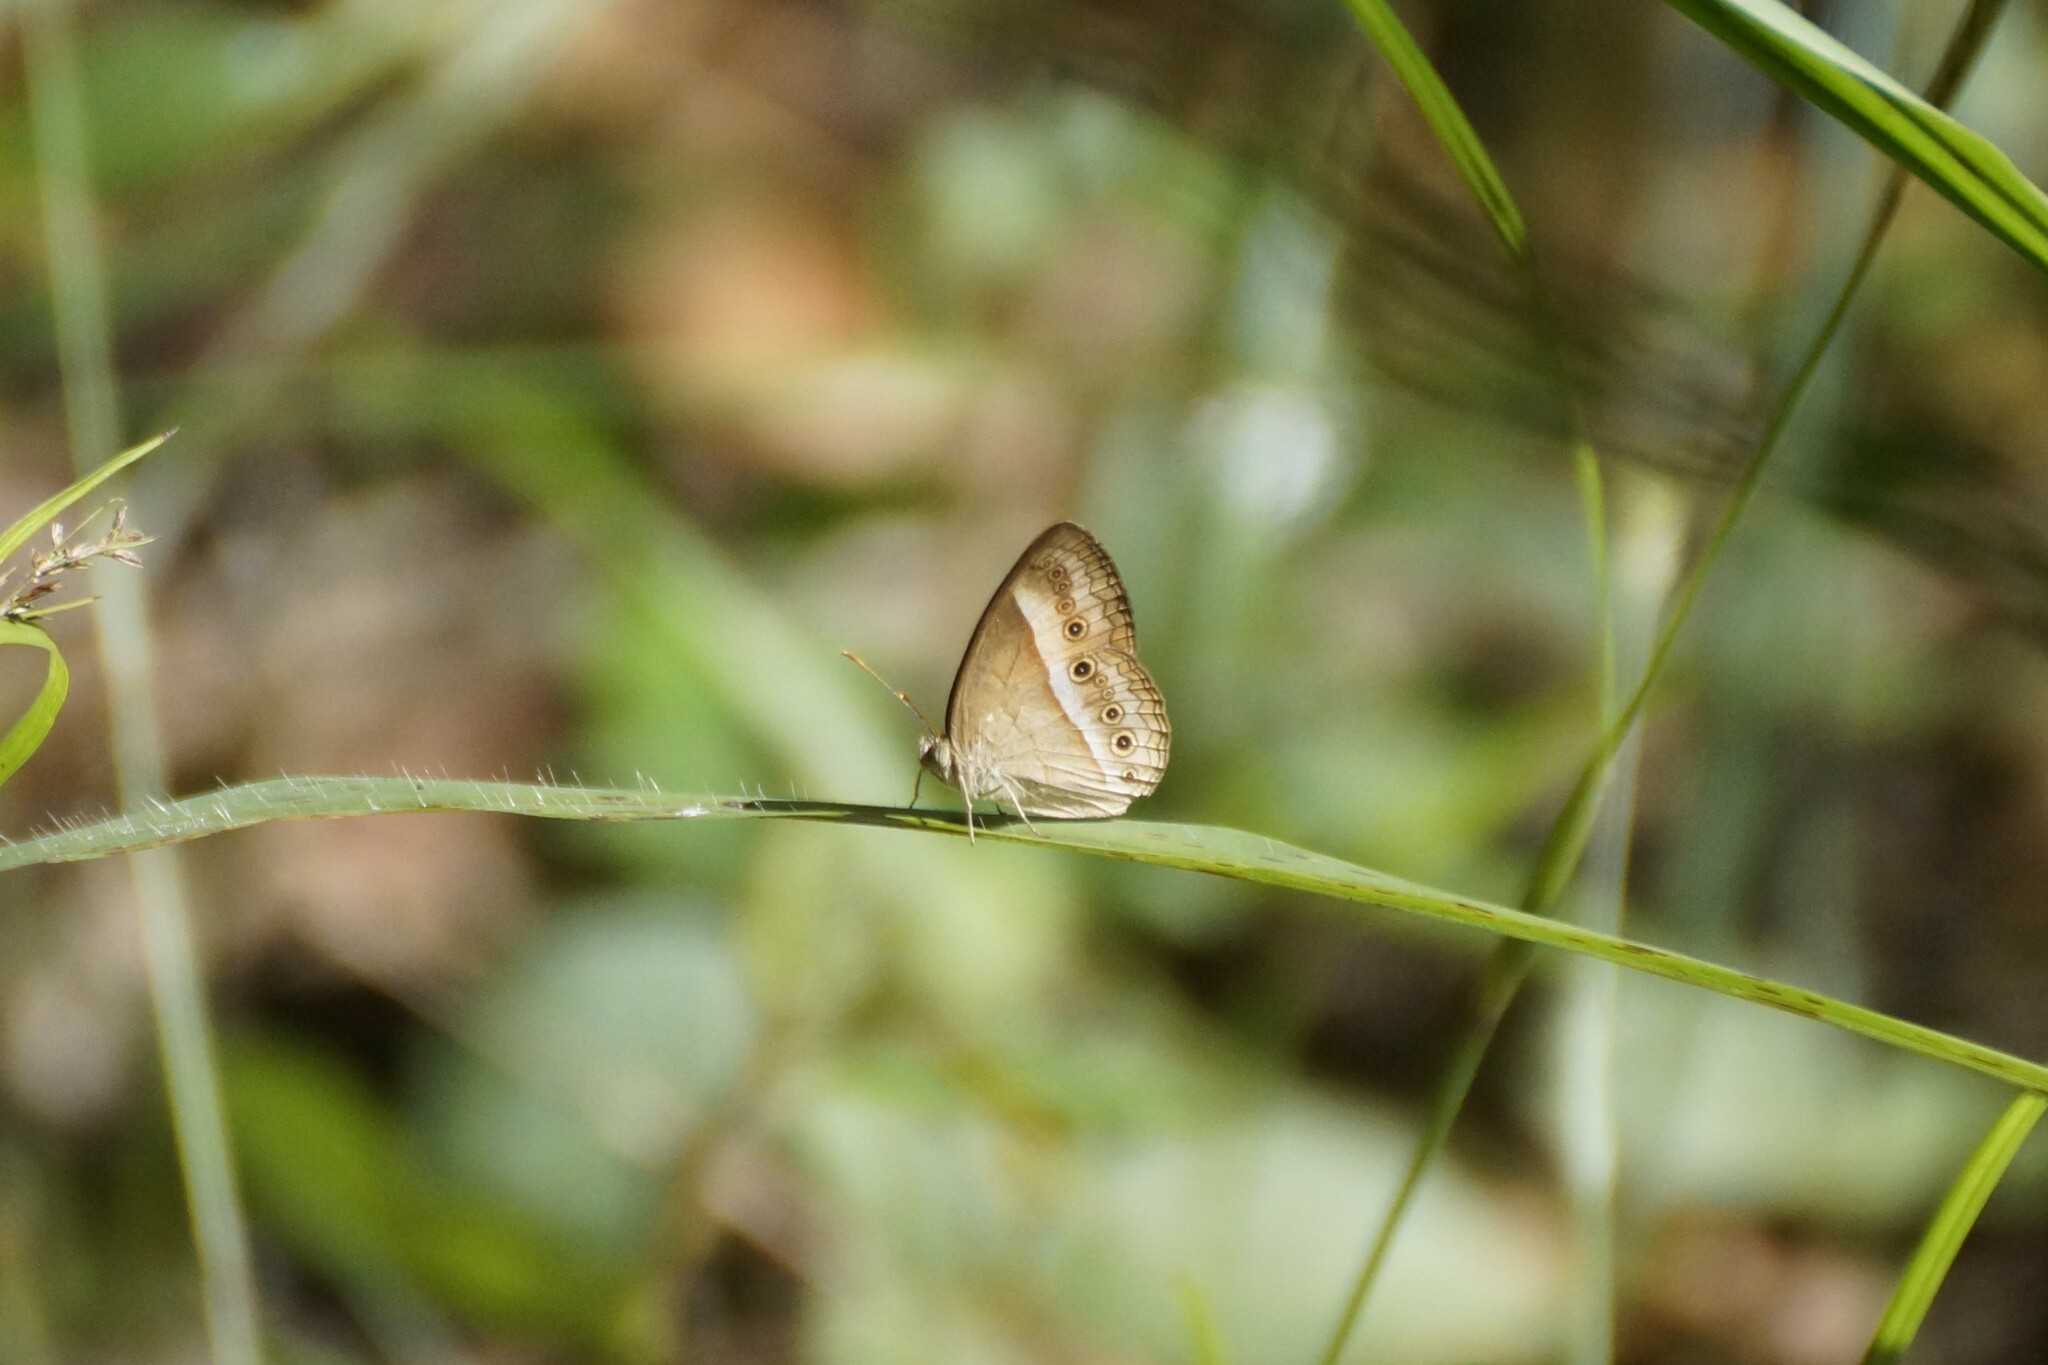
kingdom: Animalia
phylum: Arthropoda
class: Insecta
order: Lepidoptera
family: Nymphalidae
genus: Mycalesis
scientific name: Mycalesis terminus
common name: Orange bushbrown
